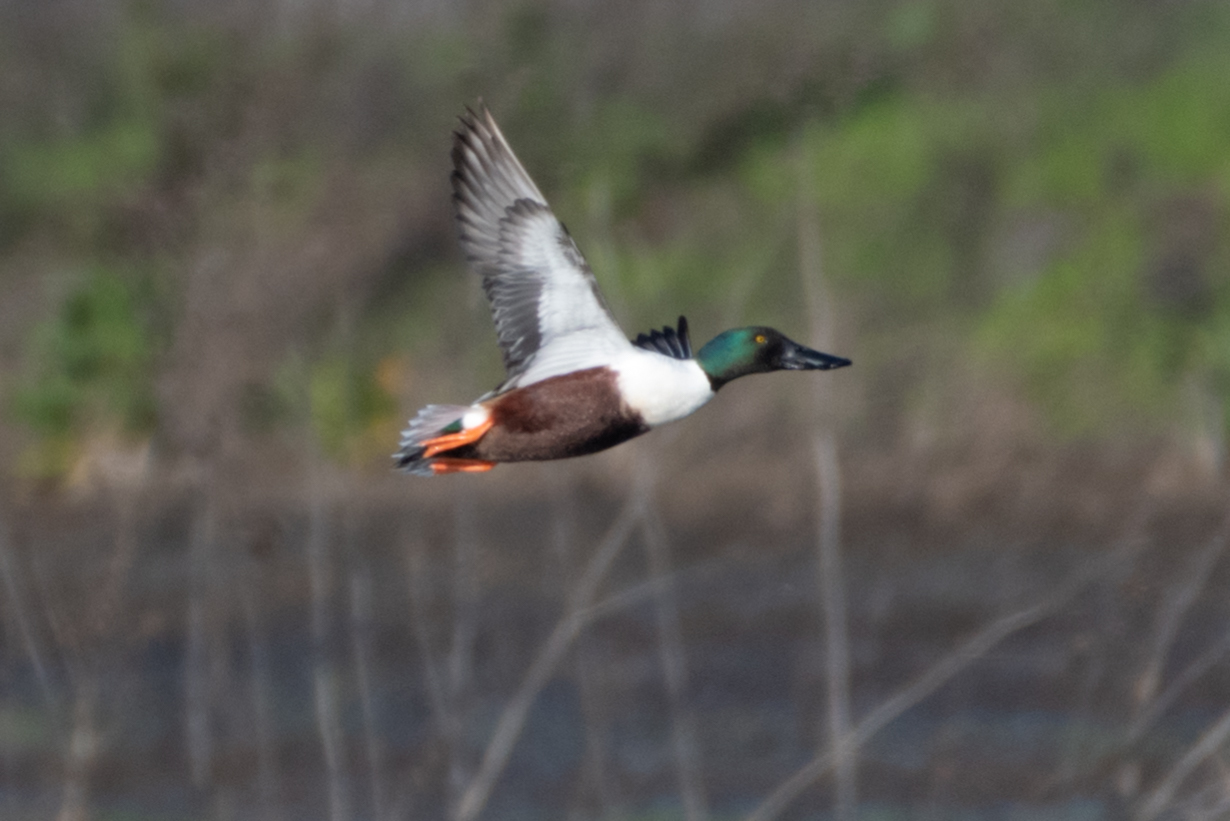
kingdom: Animalia
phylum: Chordata
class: Aves
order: Anseriformes
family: Anatidae
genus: Spatula
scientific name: Spatula clypeata
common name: Northern shoveler
